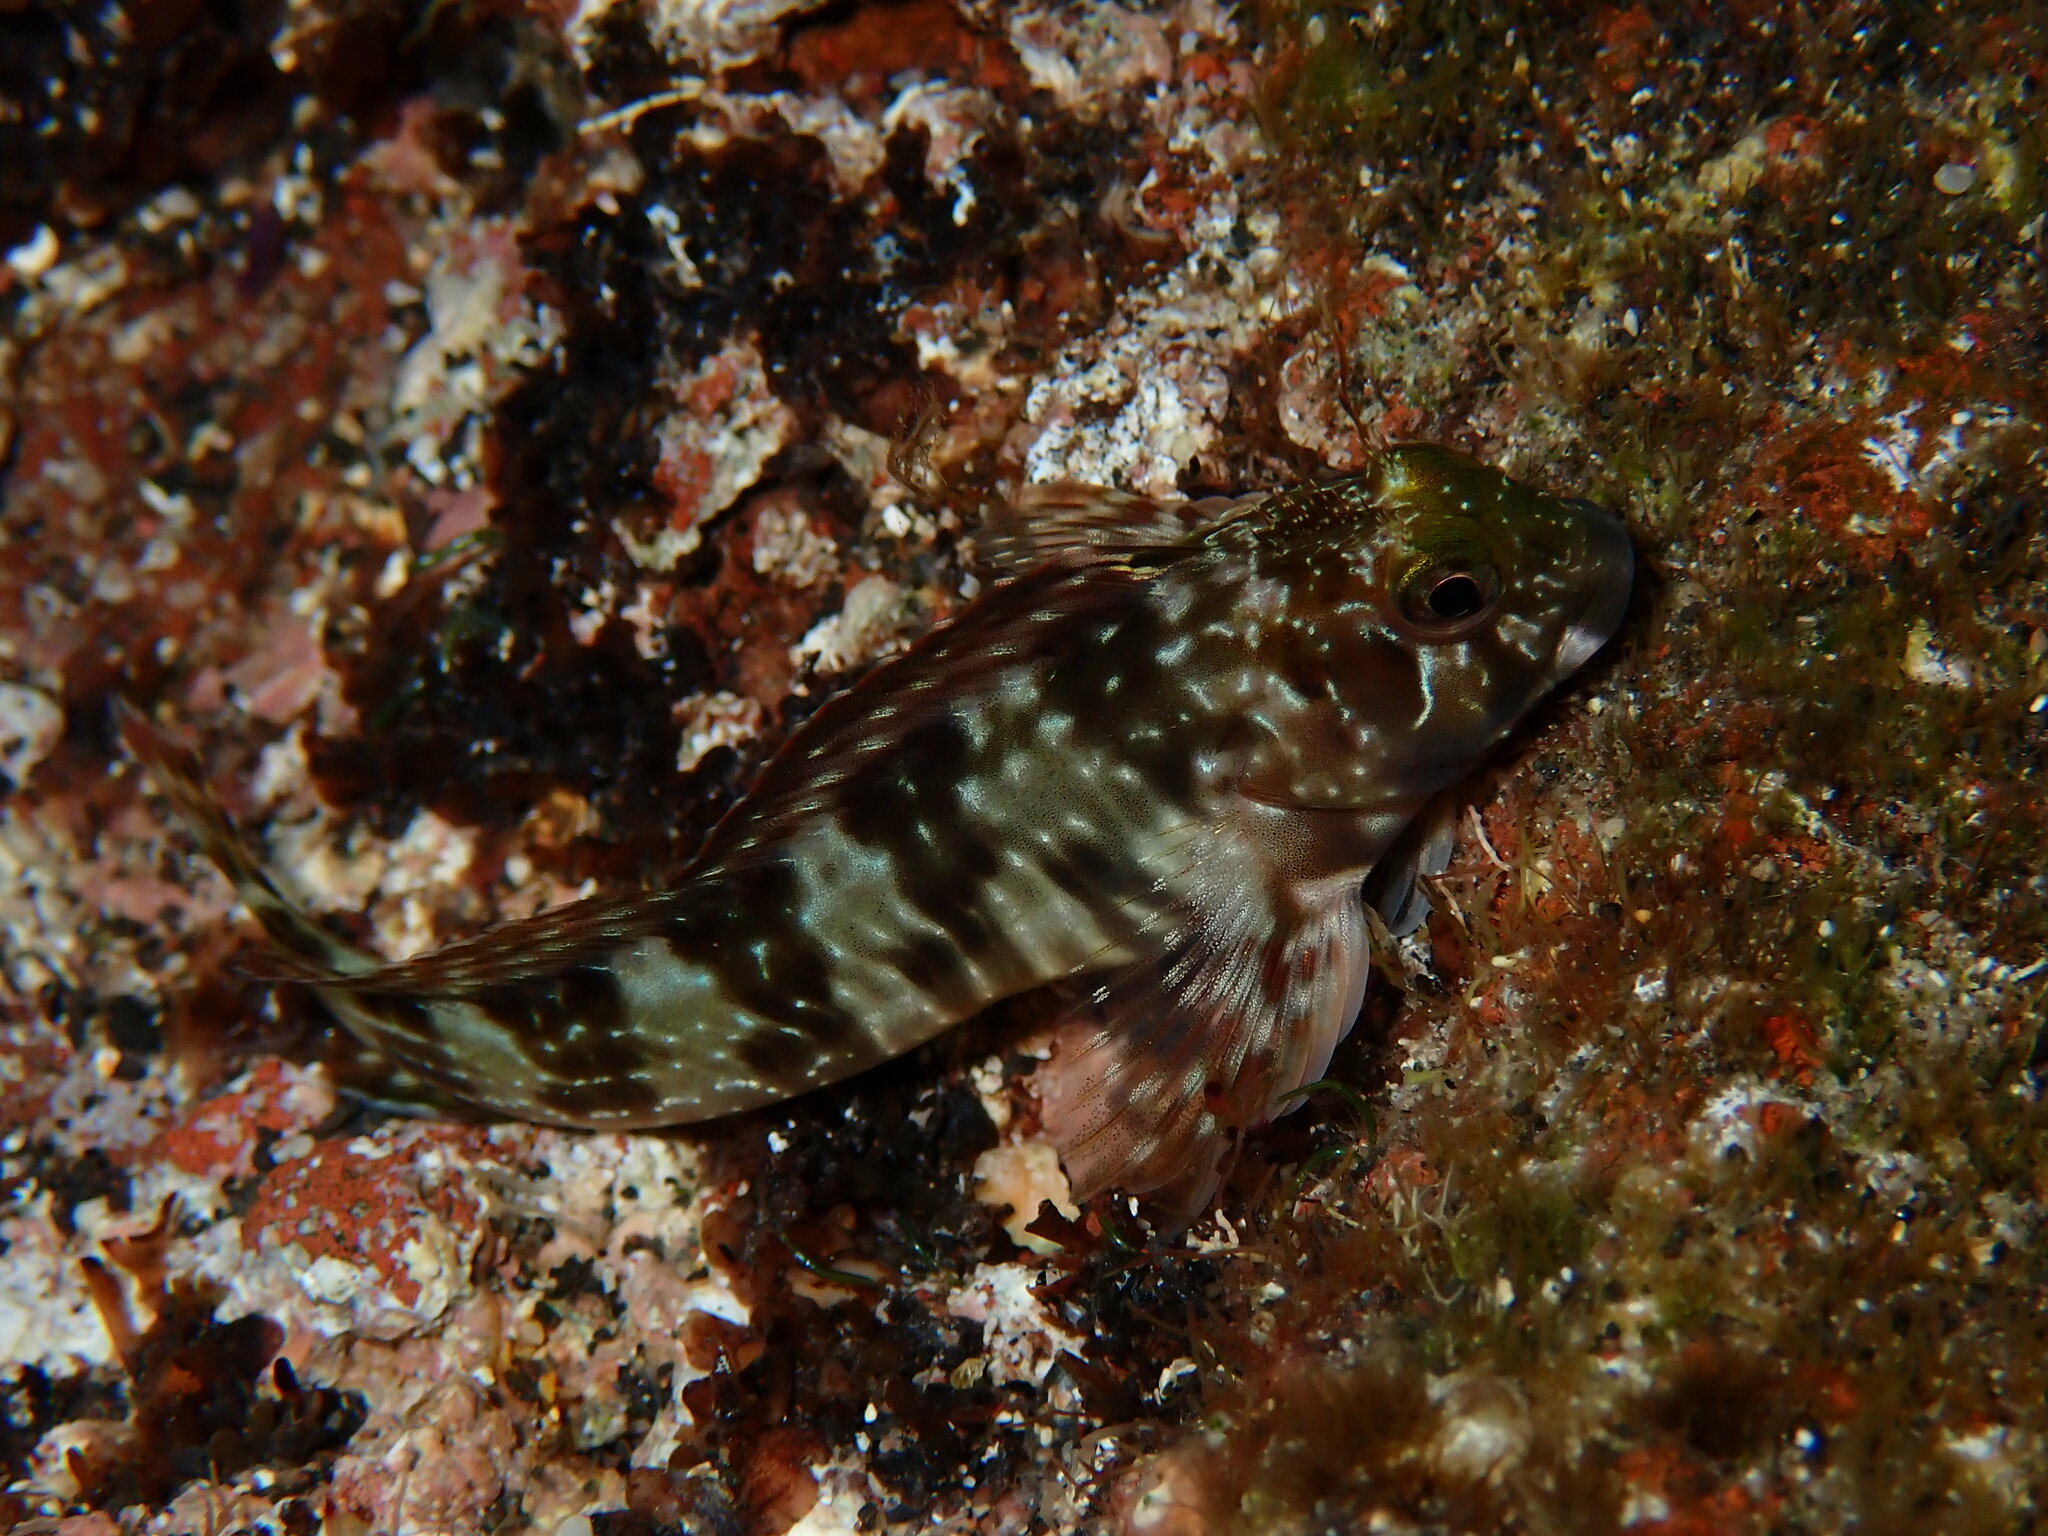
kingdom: Animalia
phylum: Chordata
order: Perciformes
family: Blenniidae
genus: Scartella
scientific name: Scartella cristata
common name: Molly miller
